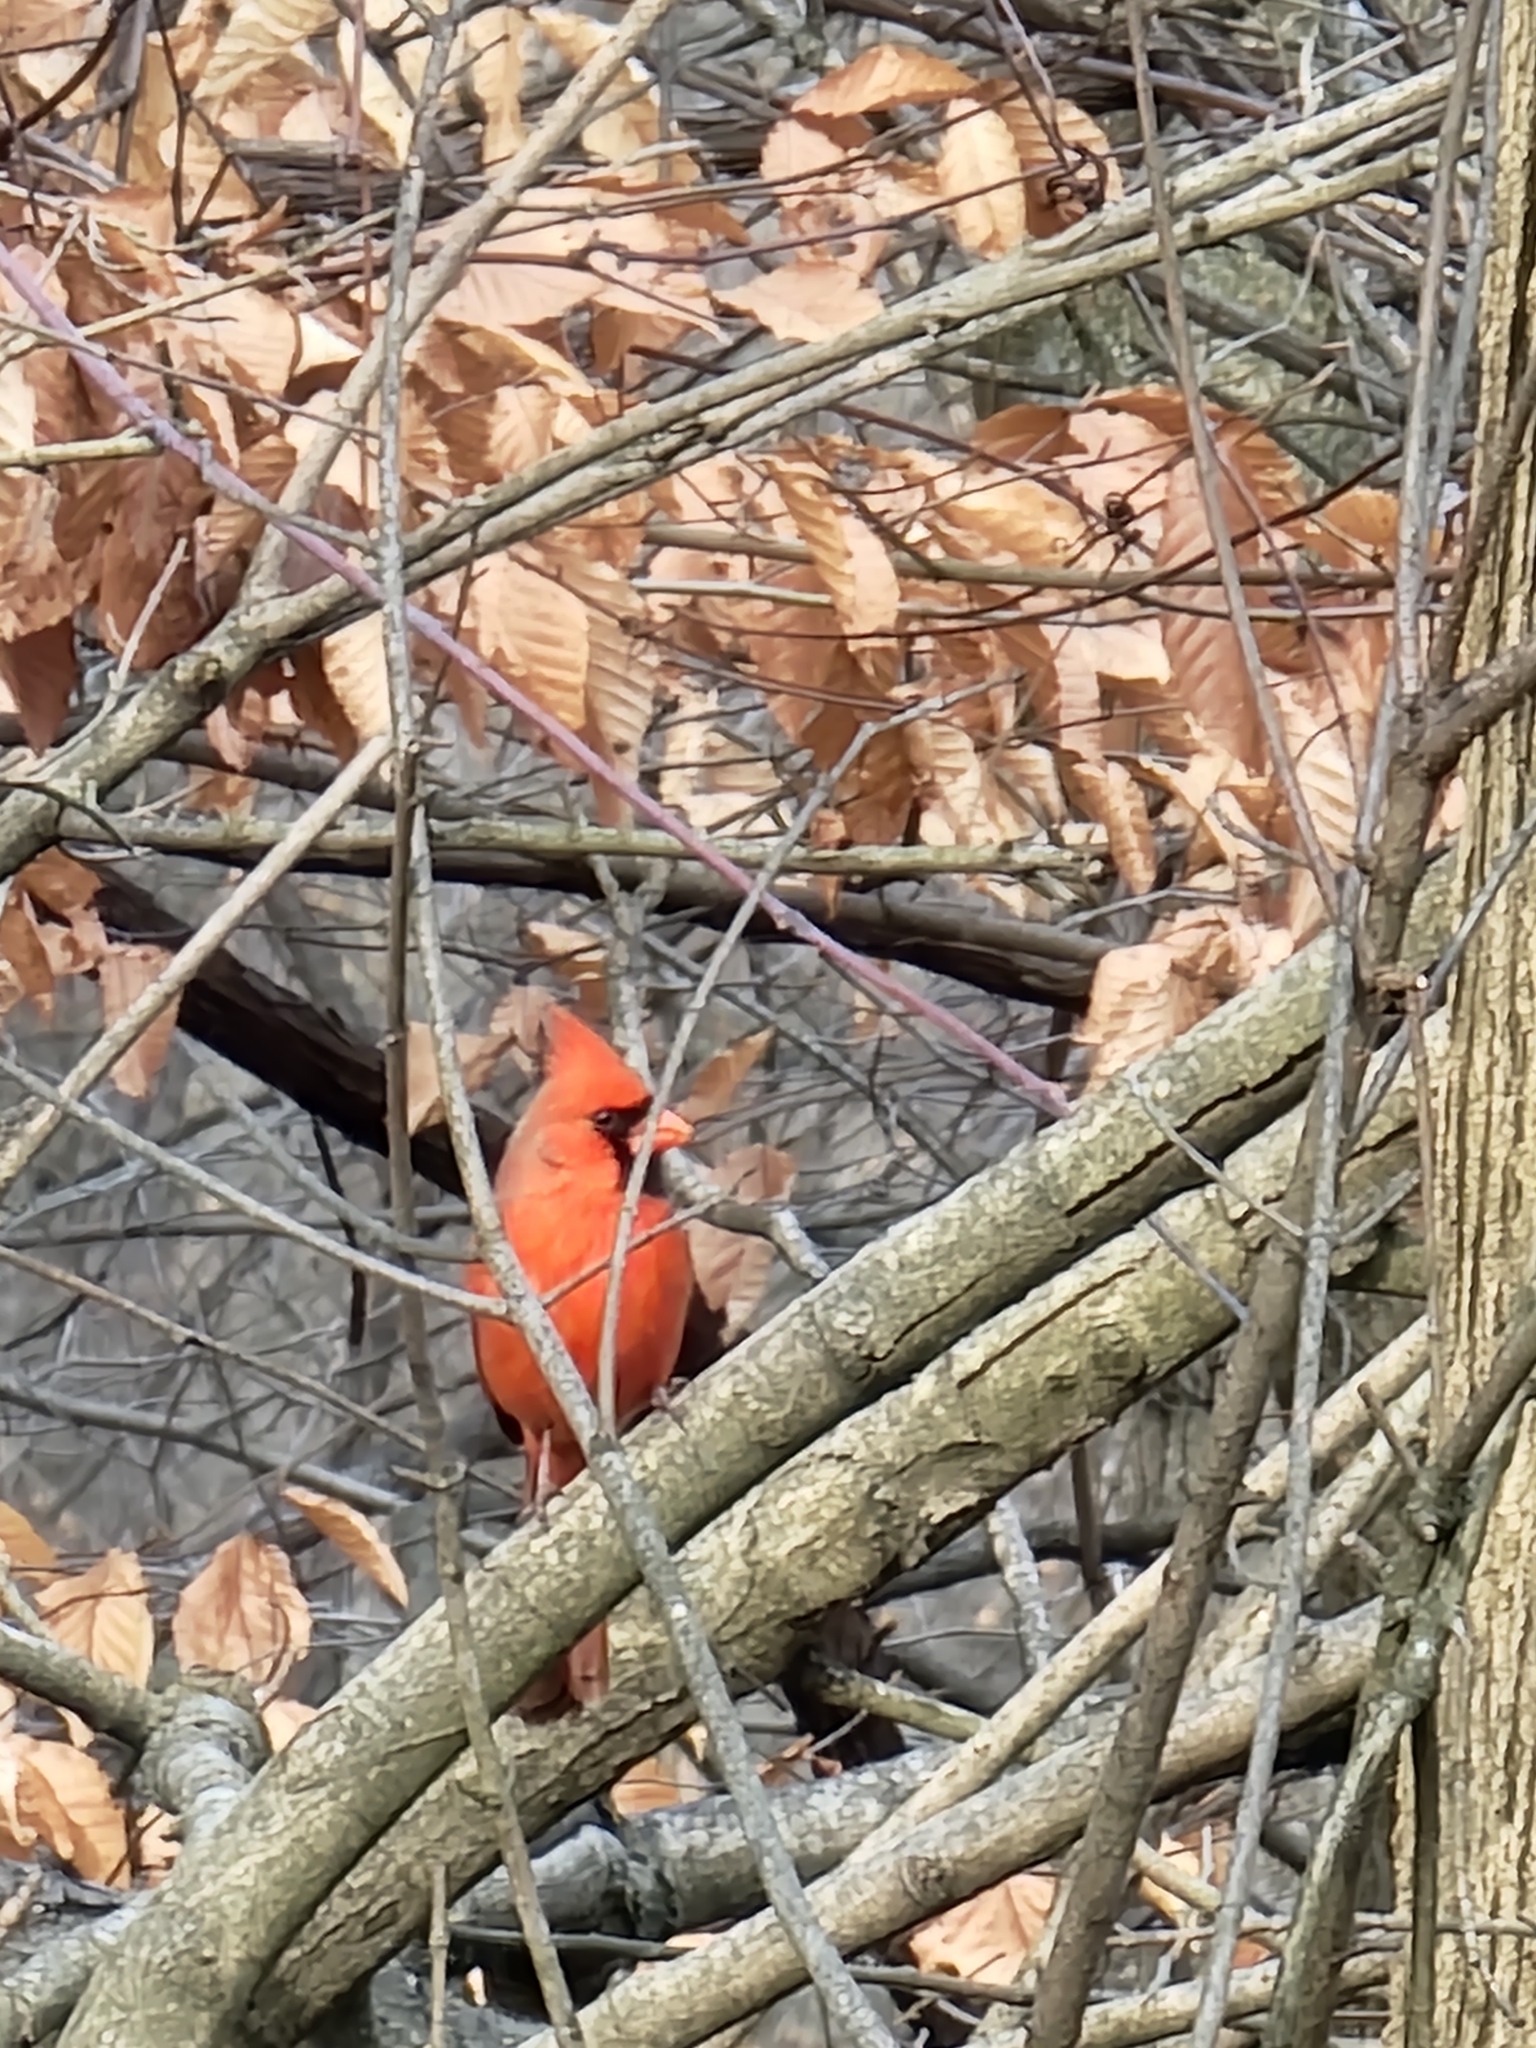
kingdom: Animalia
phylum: Chordata
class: Aves
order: Passeriformes
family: Cardinalidae
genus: Cardinalis
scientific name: Cardinalis cardinalis
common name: Northern cardinal
